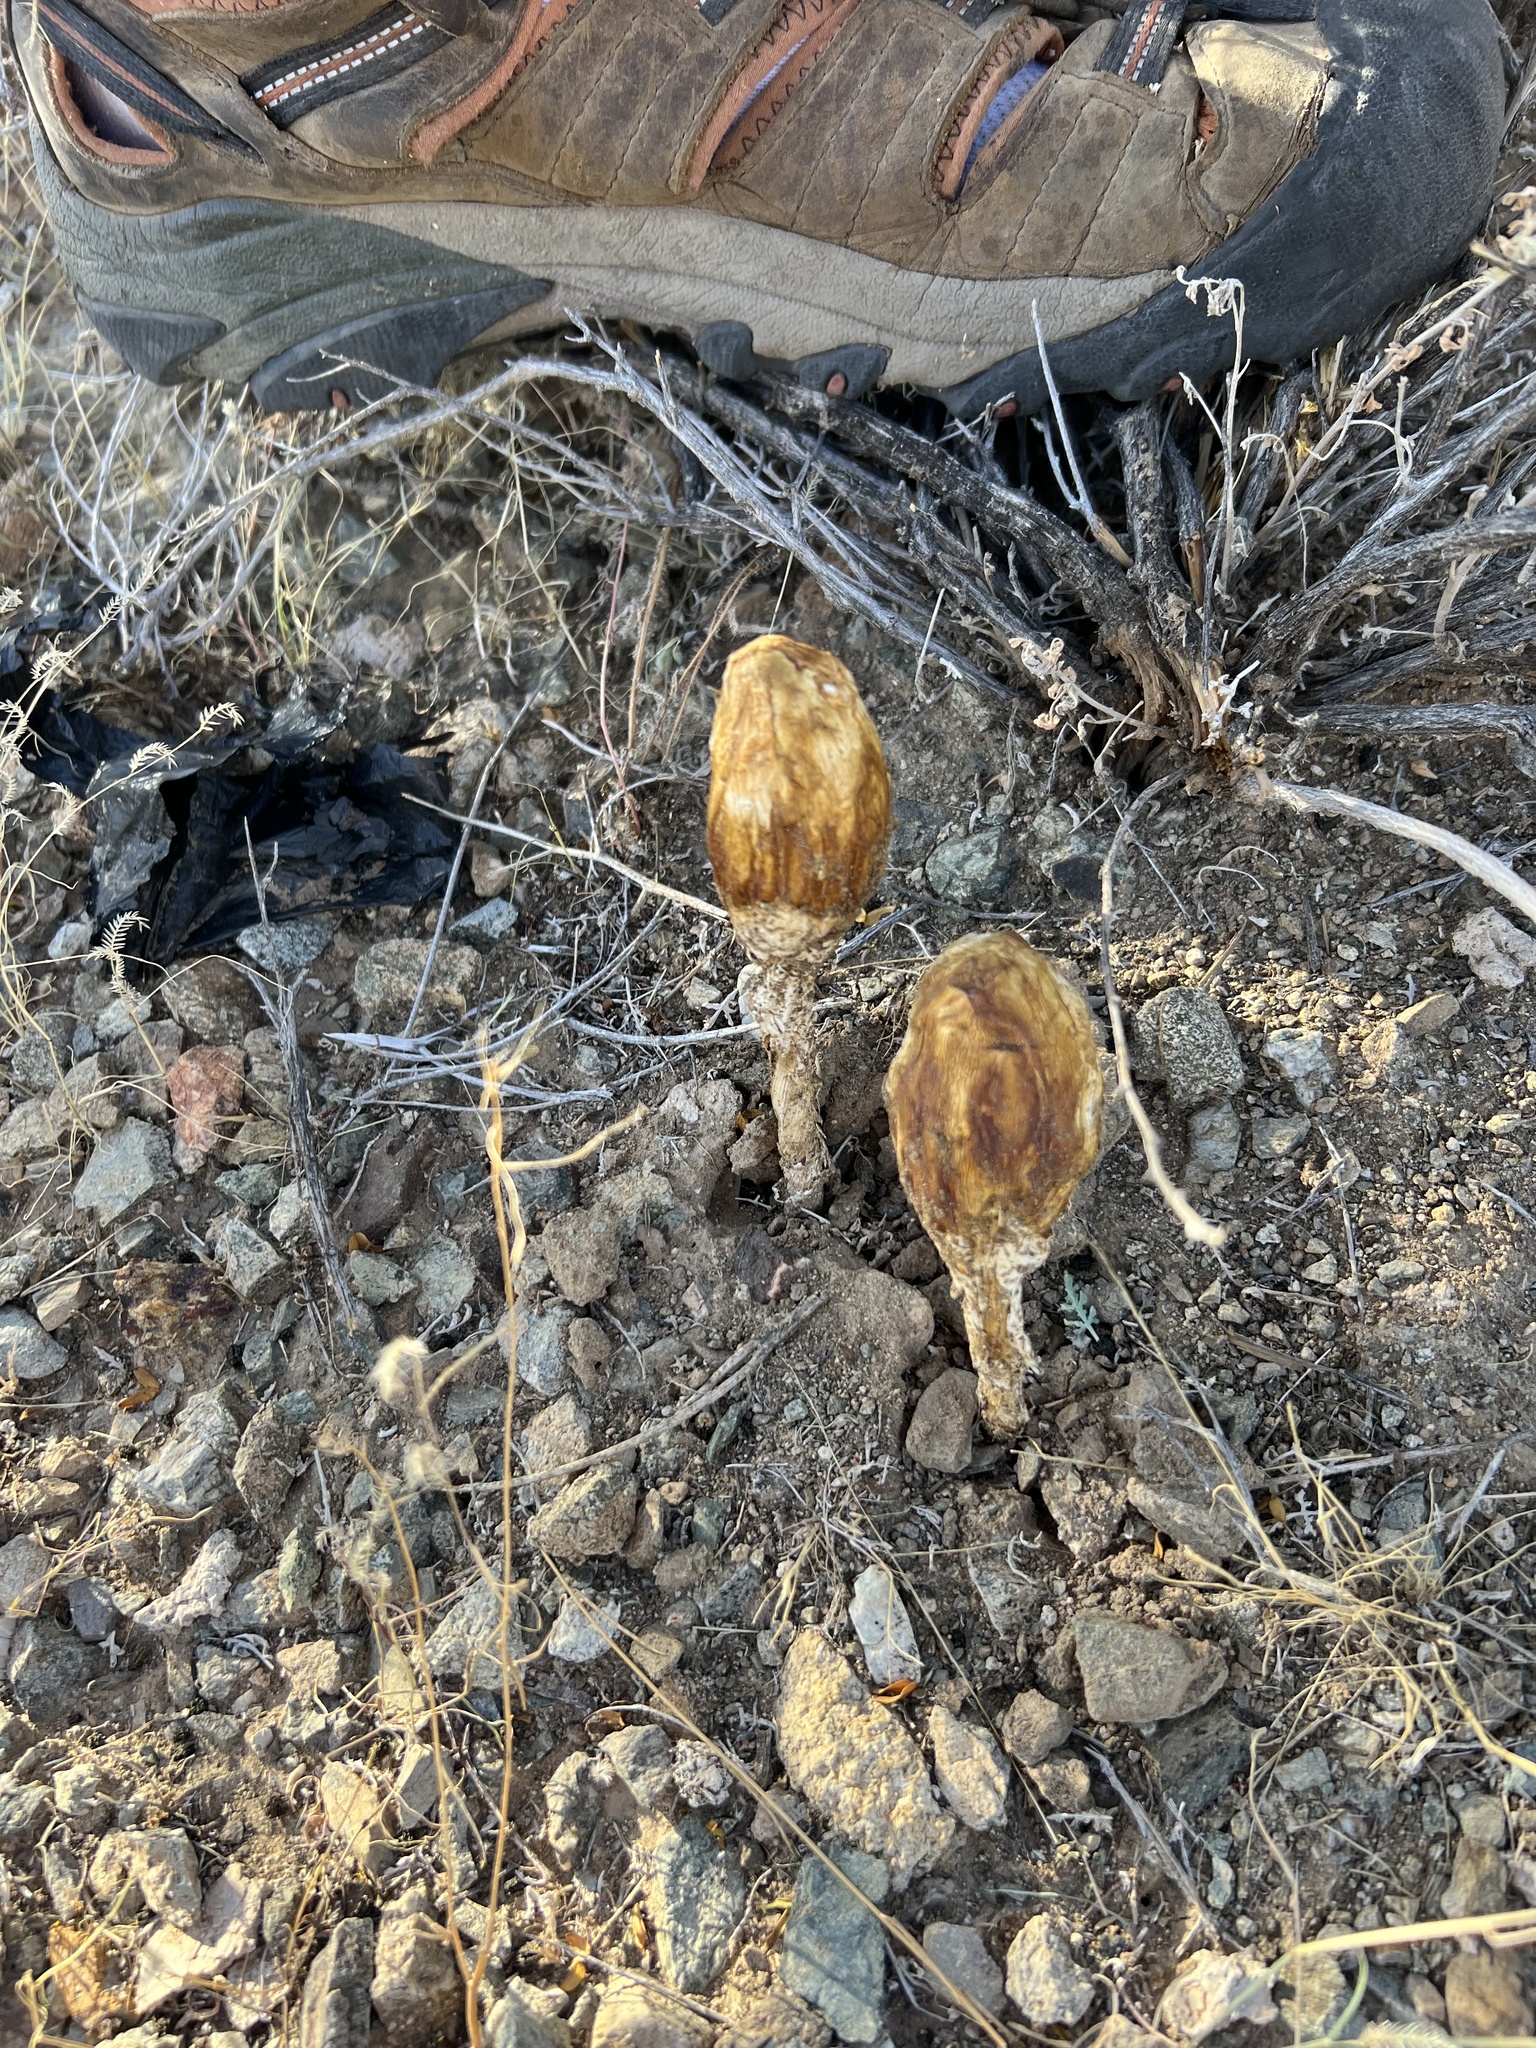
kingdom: Fungi
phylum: Basidiomycota
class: Agaricomycetes
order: Agaricales
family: Agaricaceae
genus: Podaxis
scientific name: Podaxis pistillaris
